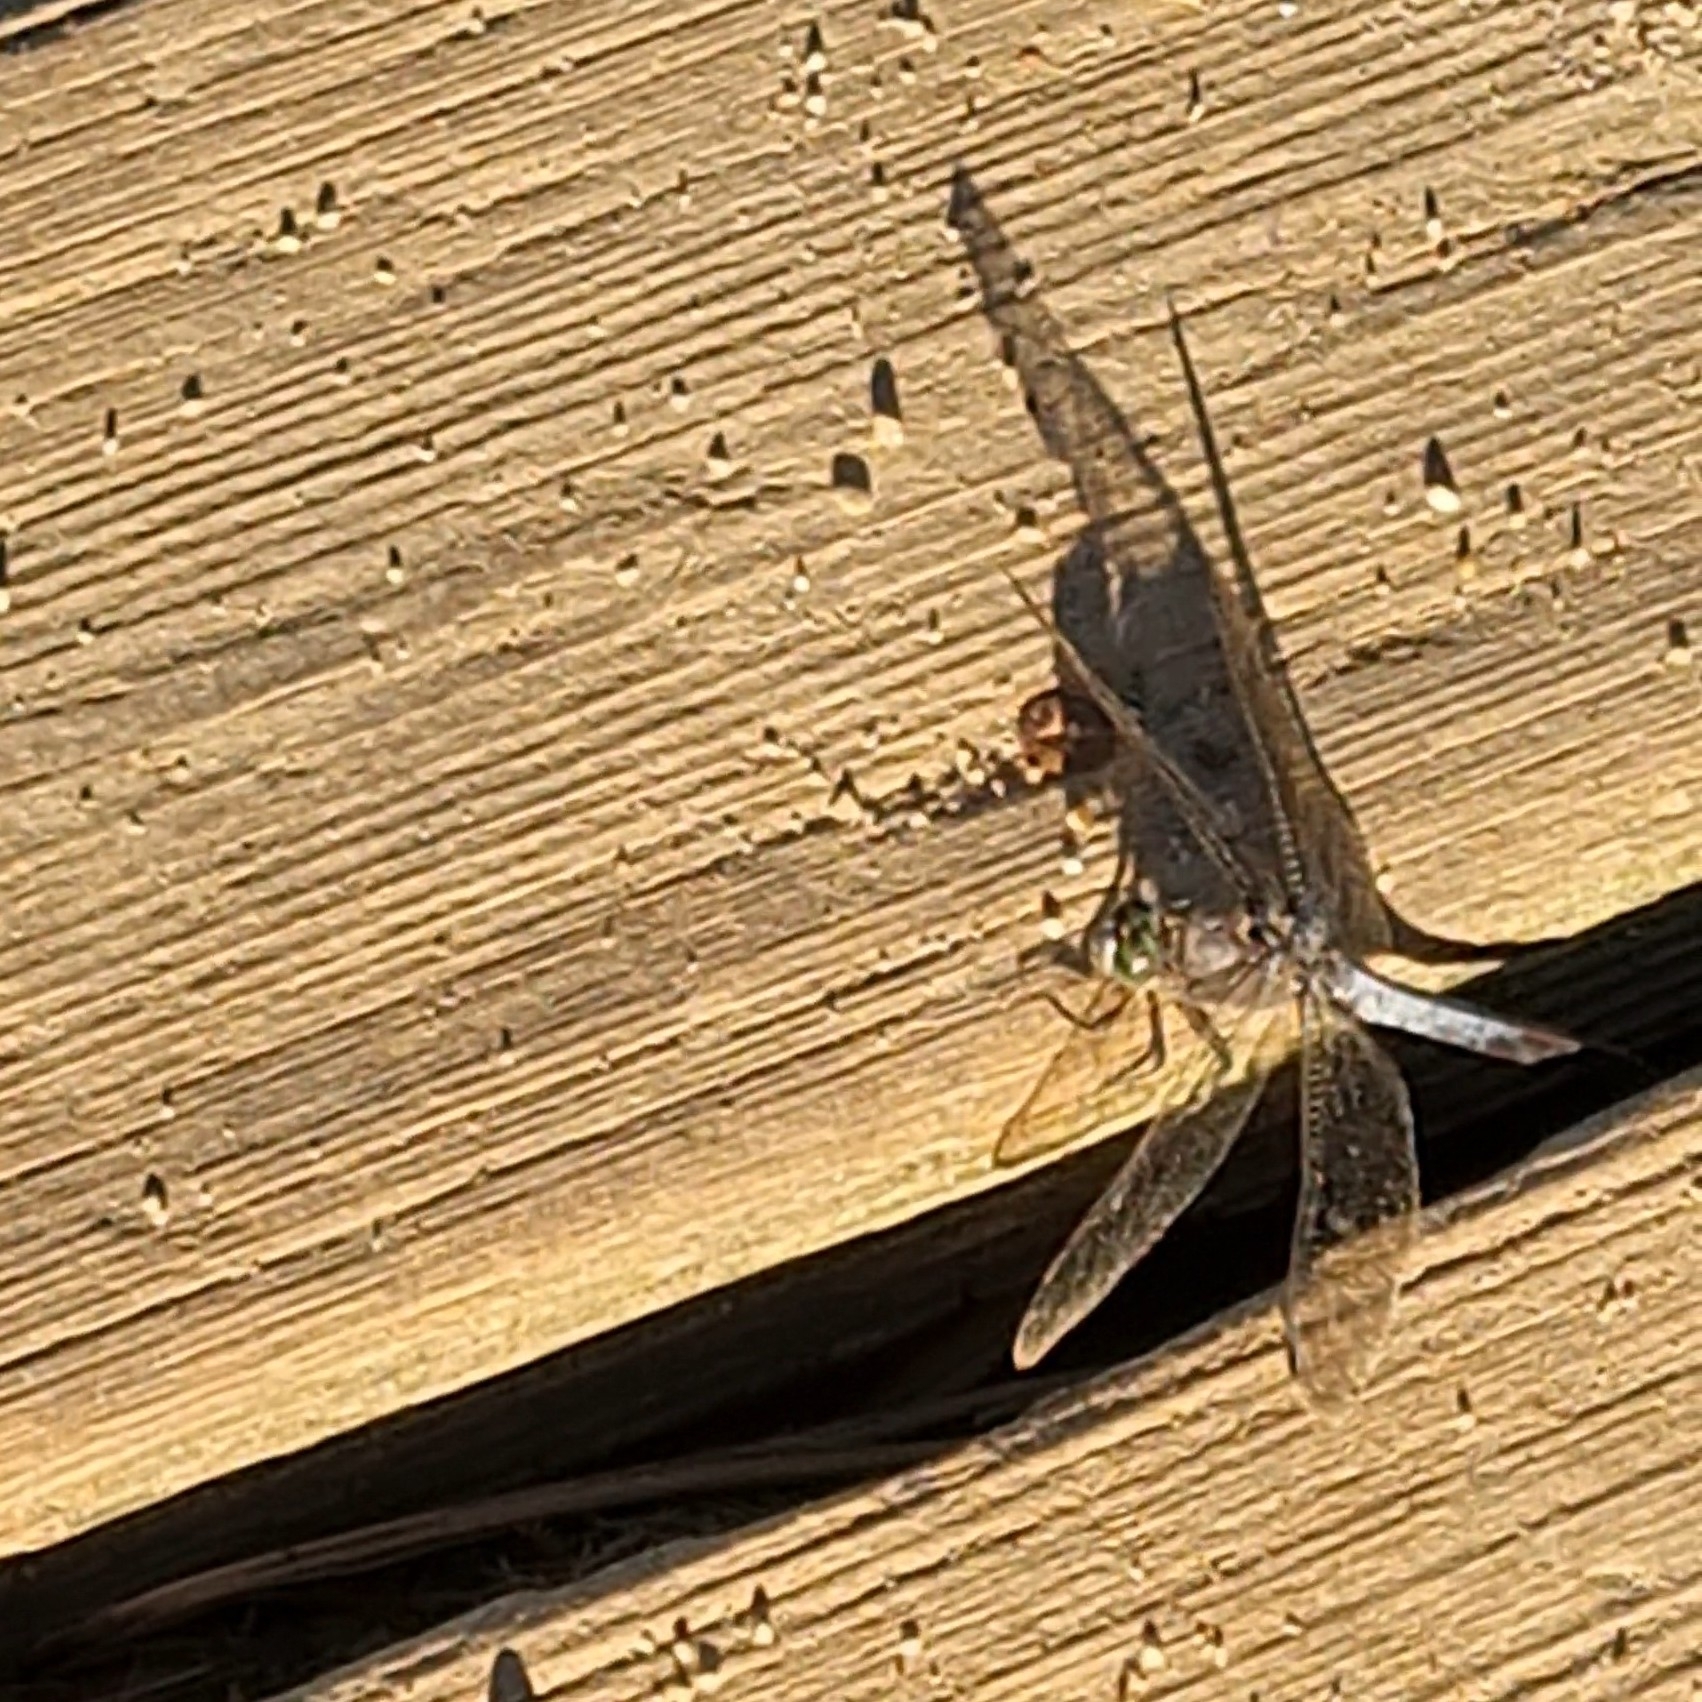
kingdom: Animalia
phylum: Arthropoda
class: Insecta
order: Odonata
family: Libellulidae
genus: Orthetrum
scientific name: Orthetrum cancellatum
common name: Black-tailed skimmer
